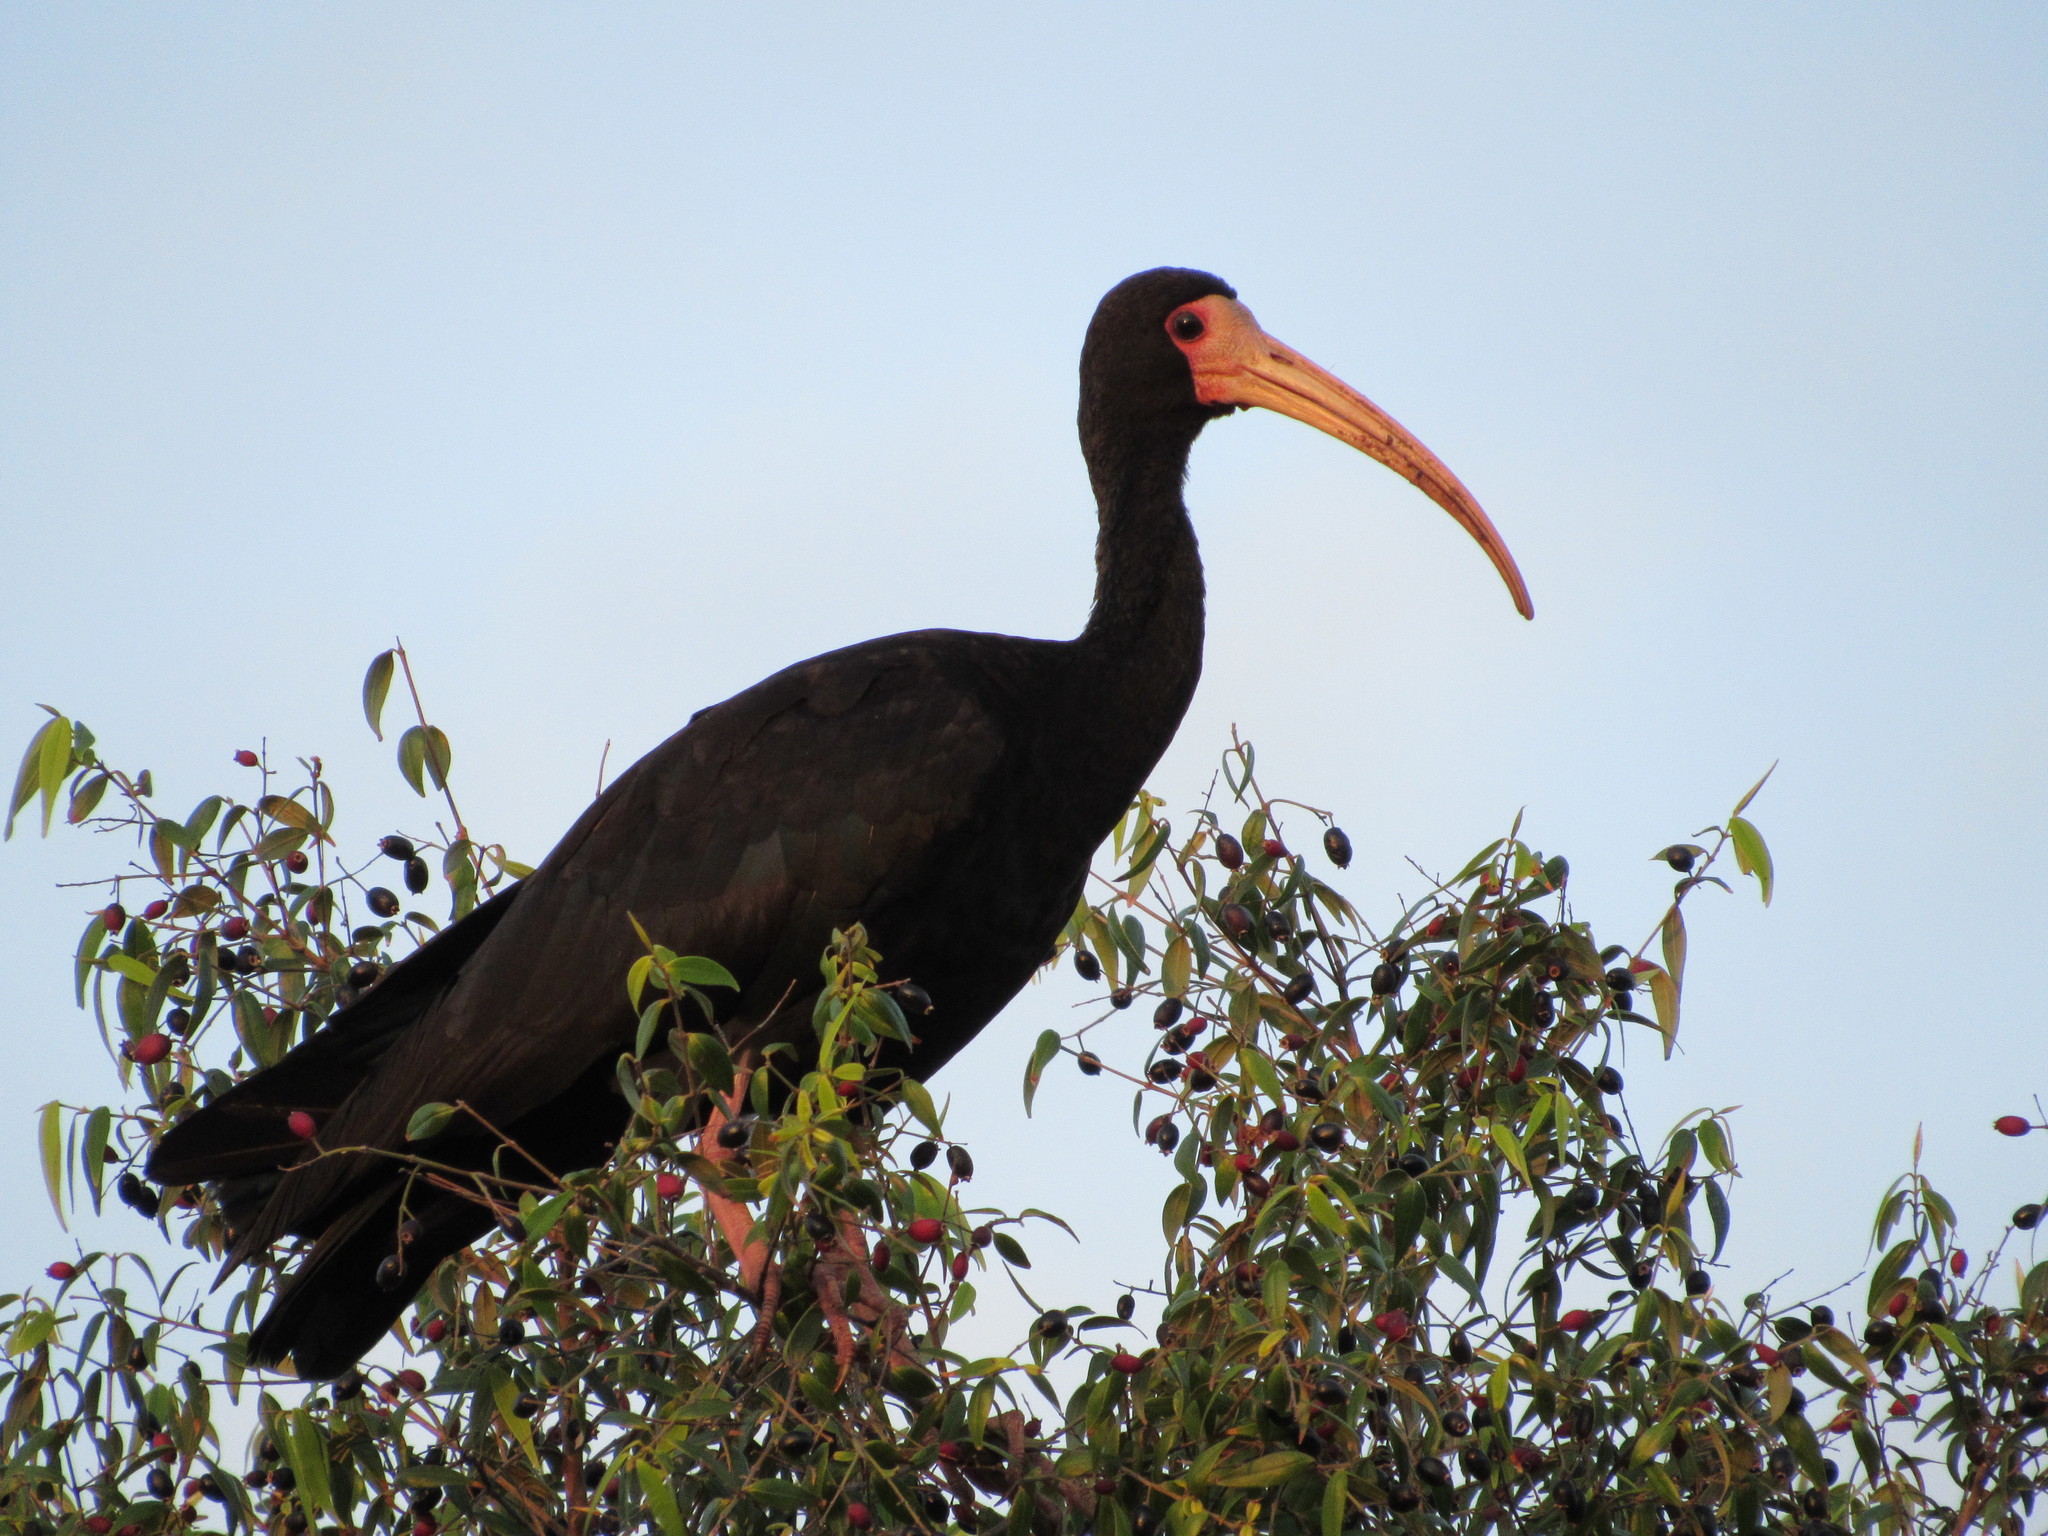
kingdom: Animalia
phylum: Chordata
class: Aves
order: Pelecaniformes
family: Threskiornithidae
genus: Phimosus
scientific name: Phimosus infuscatus
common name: Bare-faced ibis
